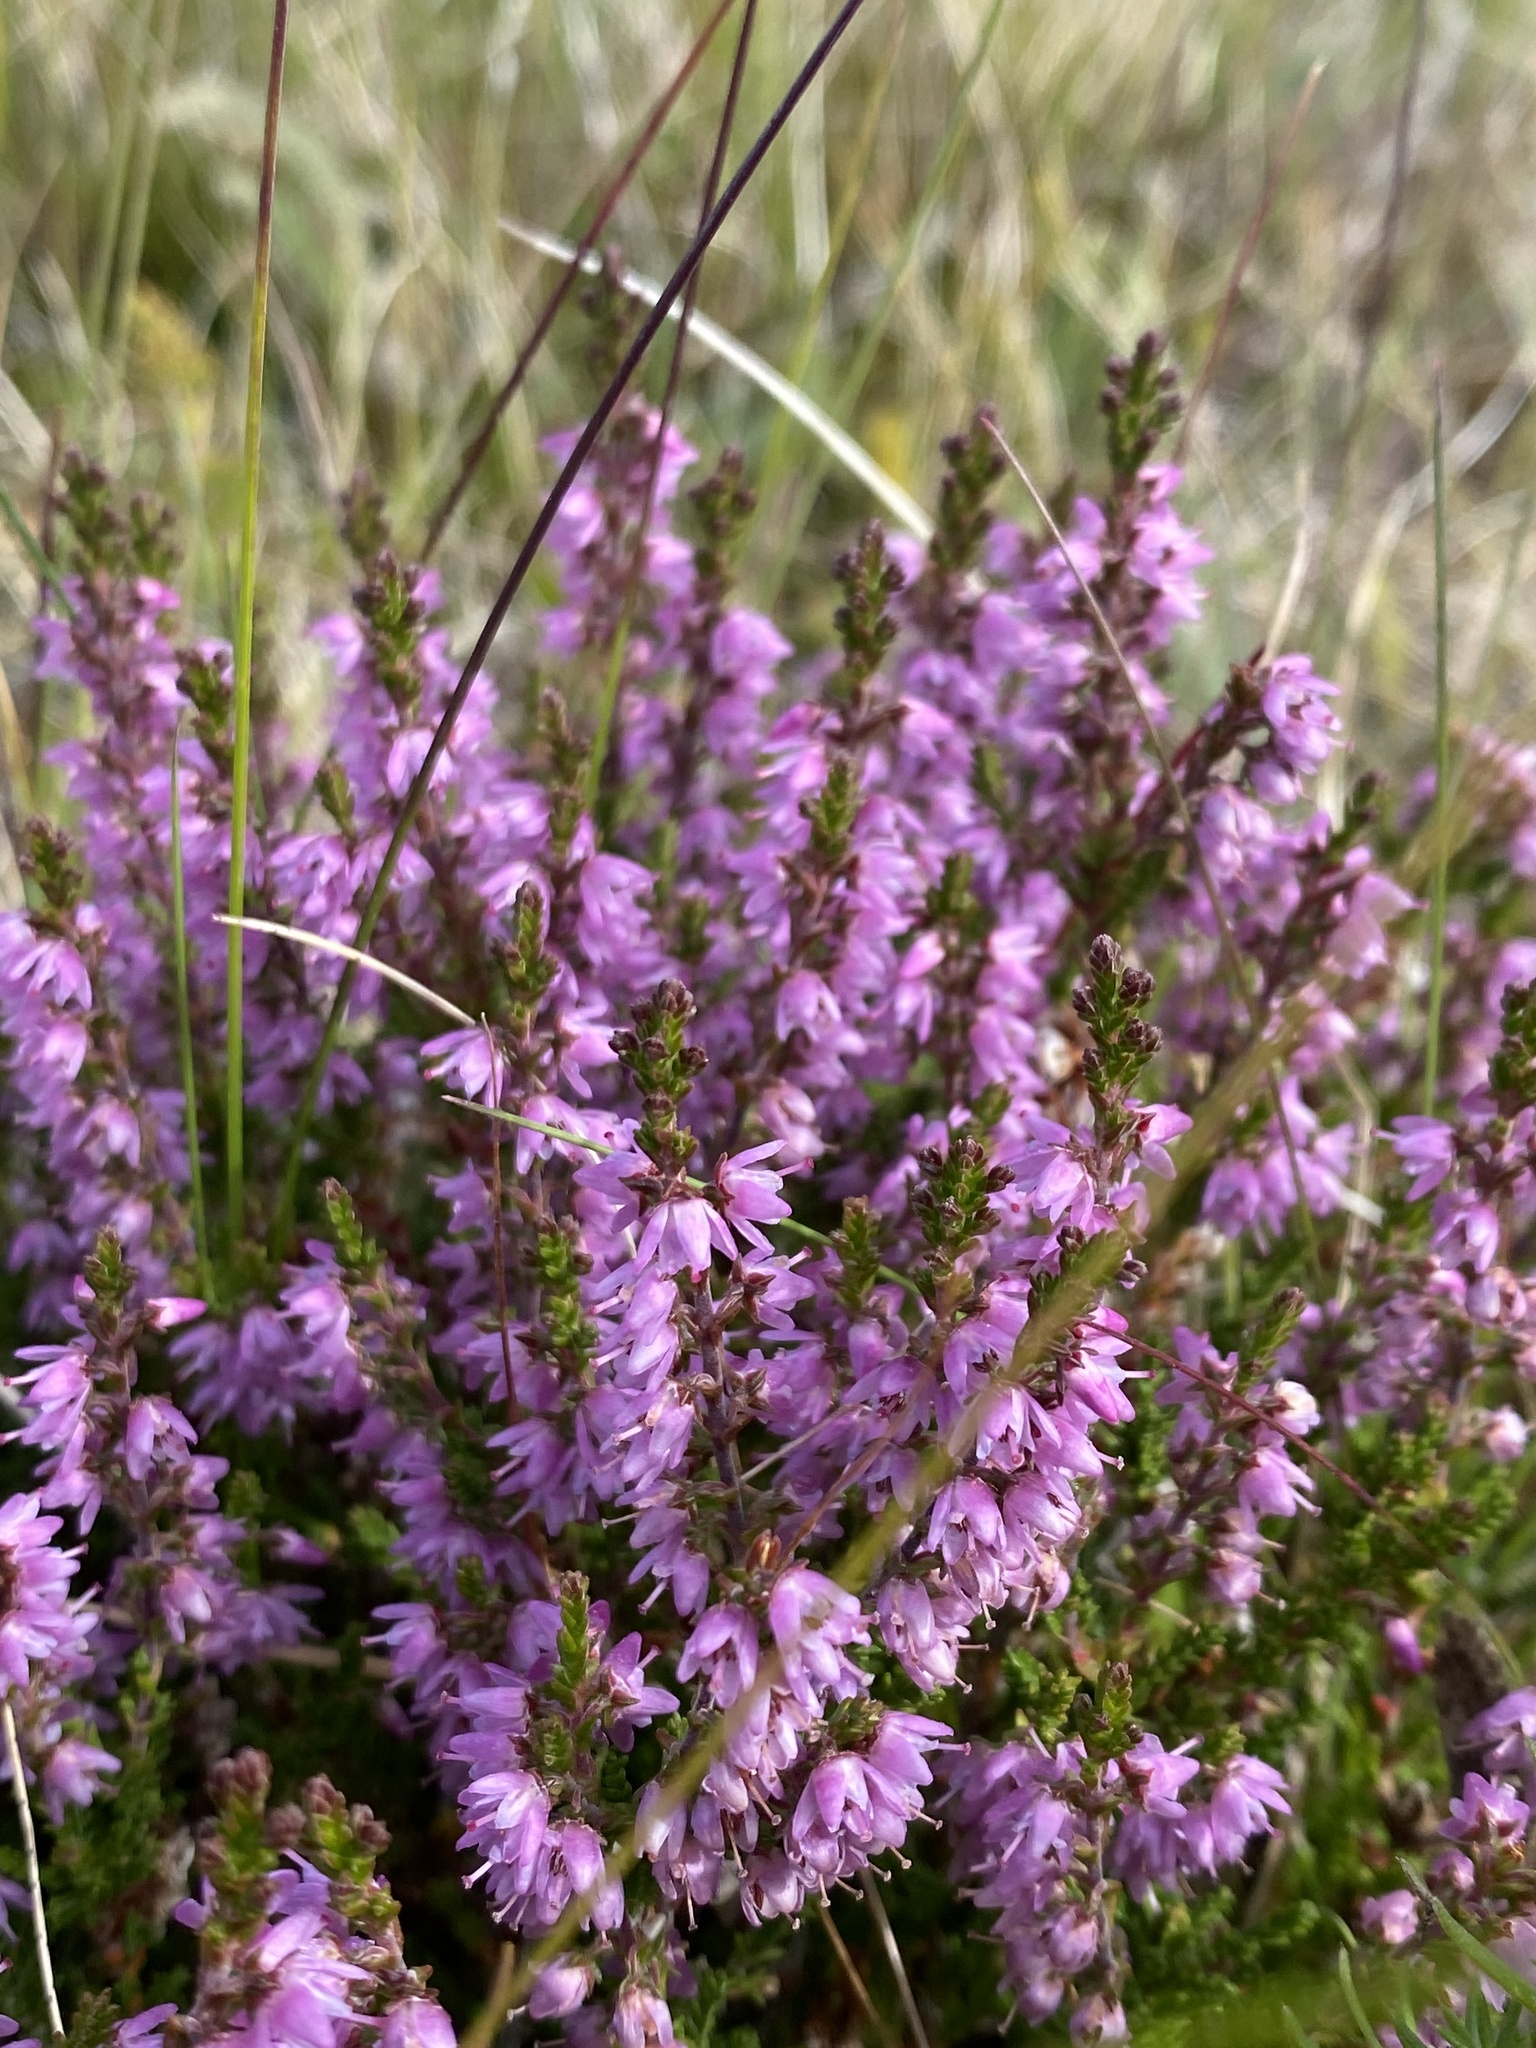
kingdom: Plantae
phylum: Tracheophyta
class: Magnoliopsida
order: Ericales
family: Ericaceae
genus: Calluna
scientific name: Calluna vulgaris
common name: Heather
